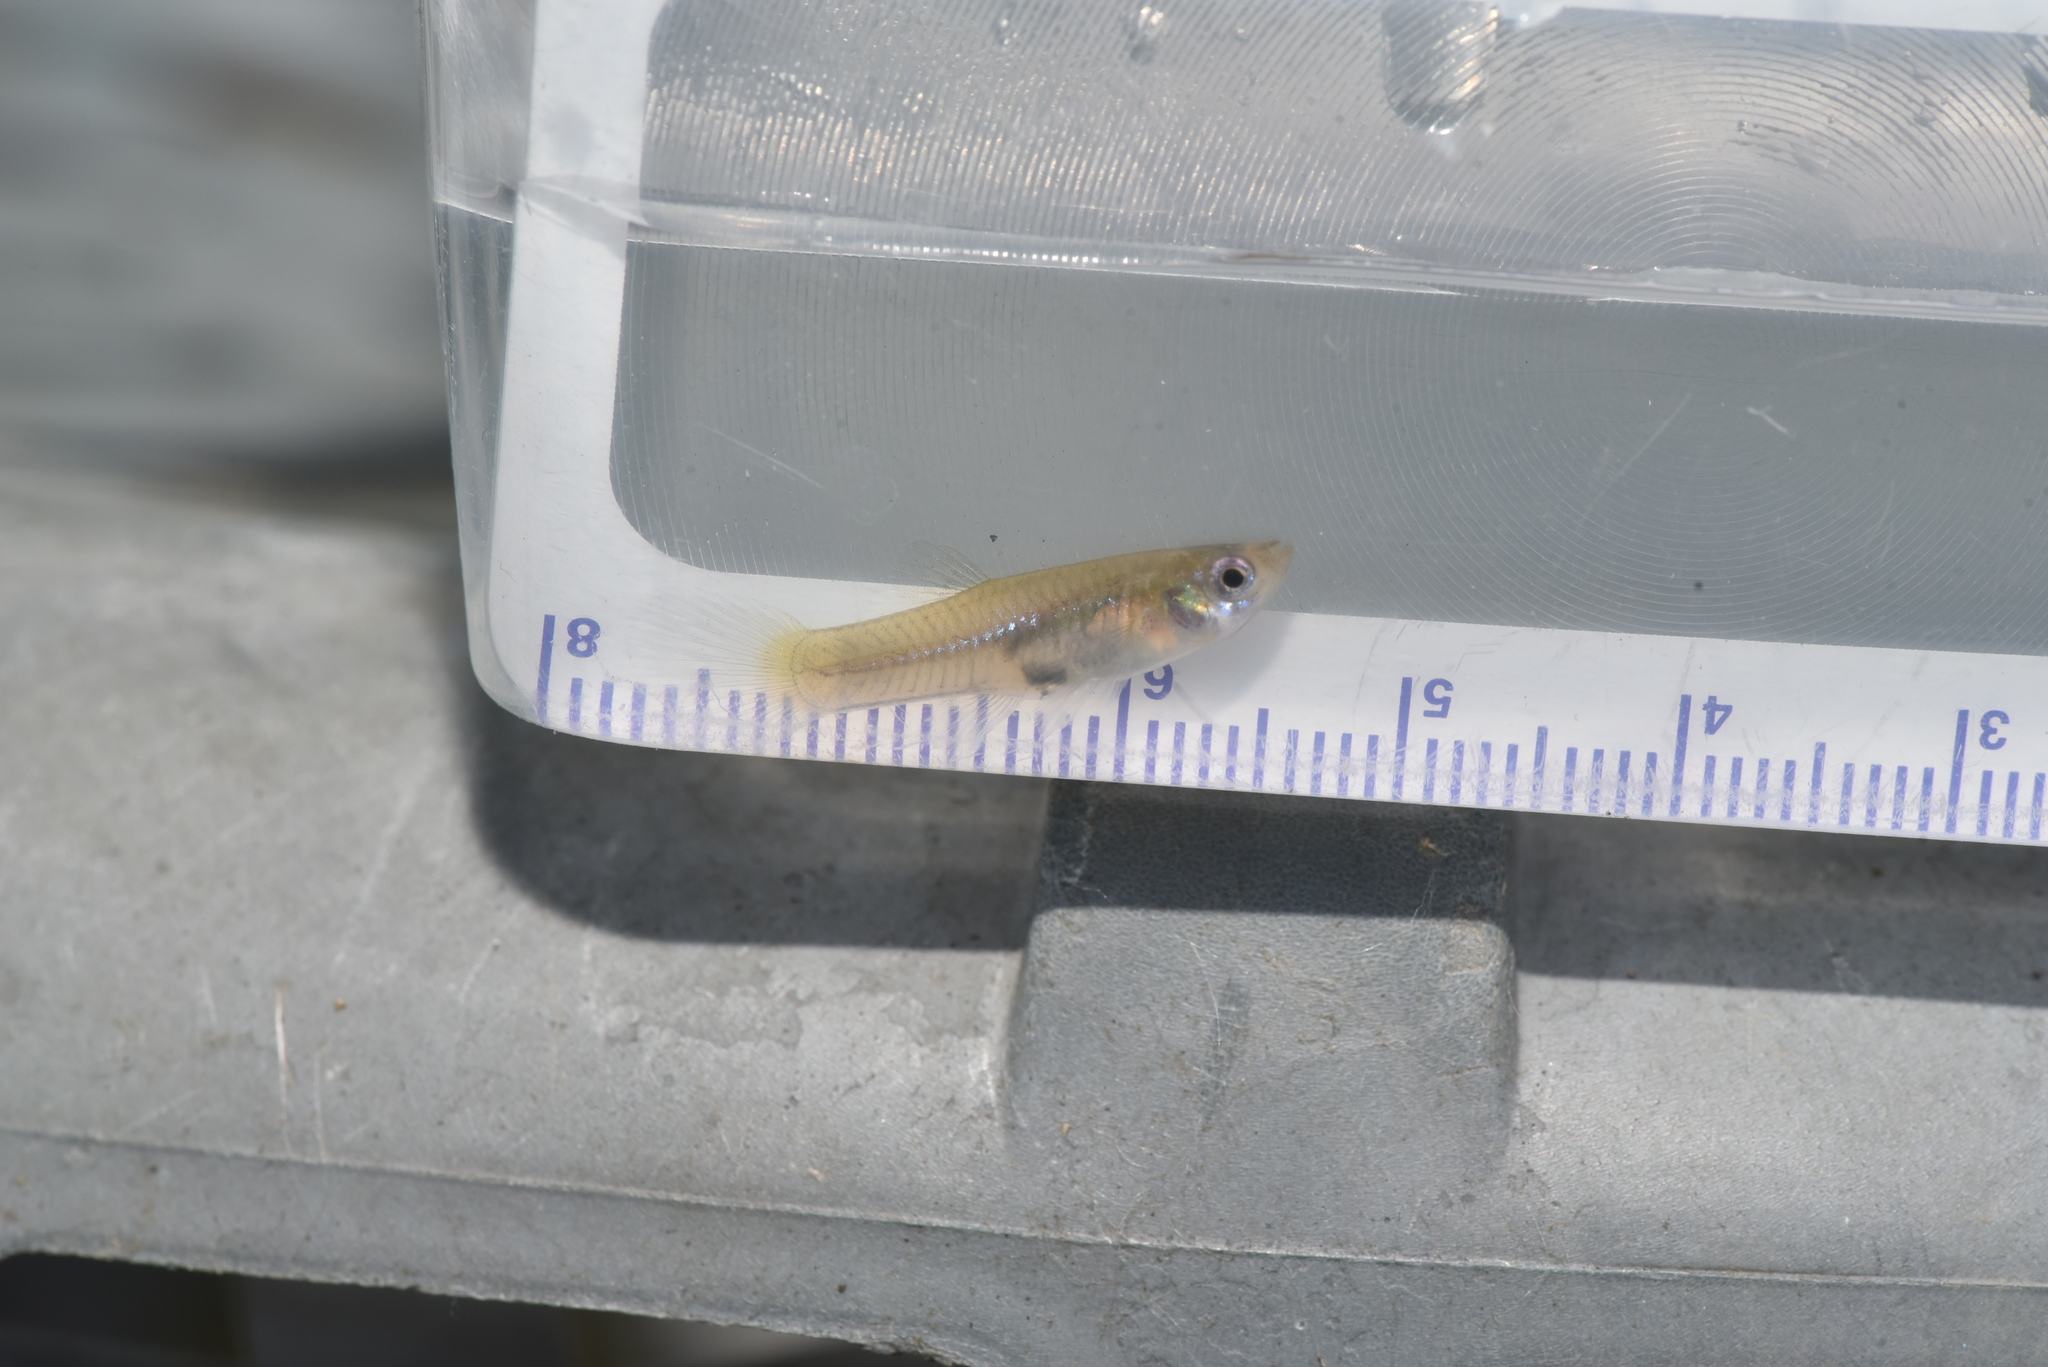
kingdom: Animalia
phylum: Chordata
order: Cyprinodontiformes
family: Poeciliidae
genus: Poecilia
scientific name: Poecilia reticulata
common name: Guppy
